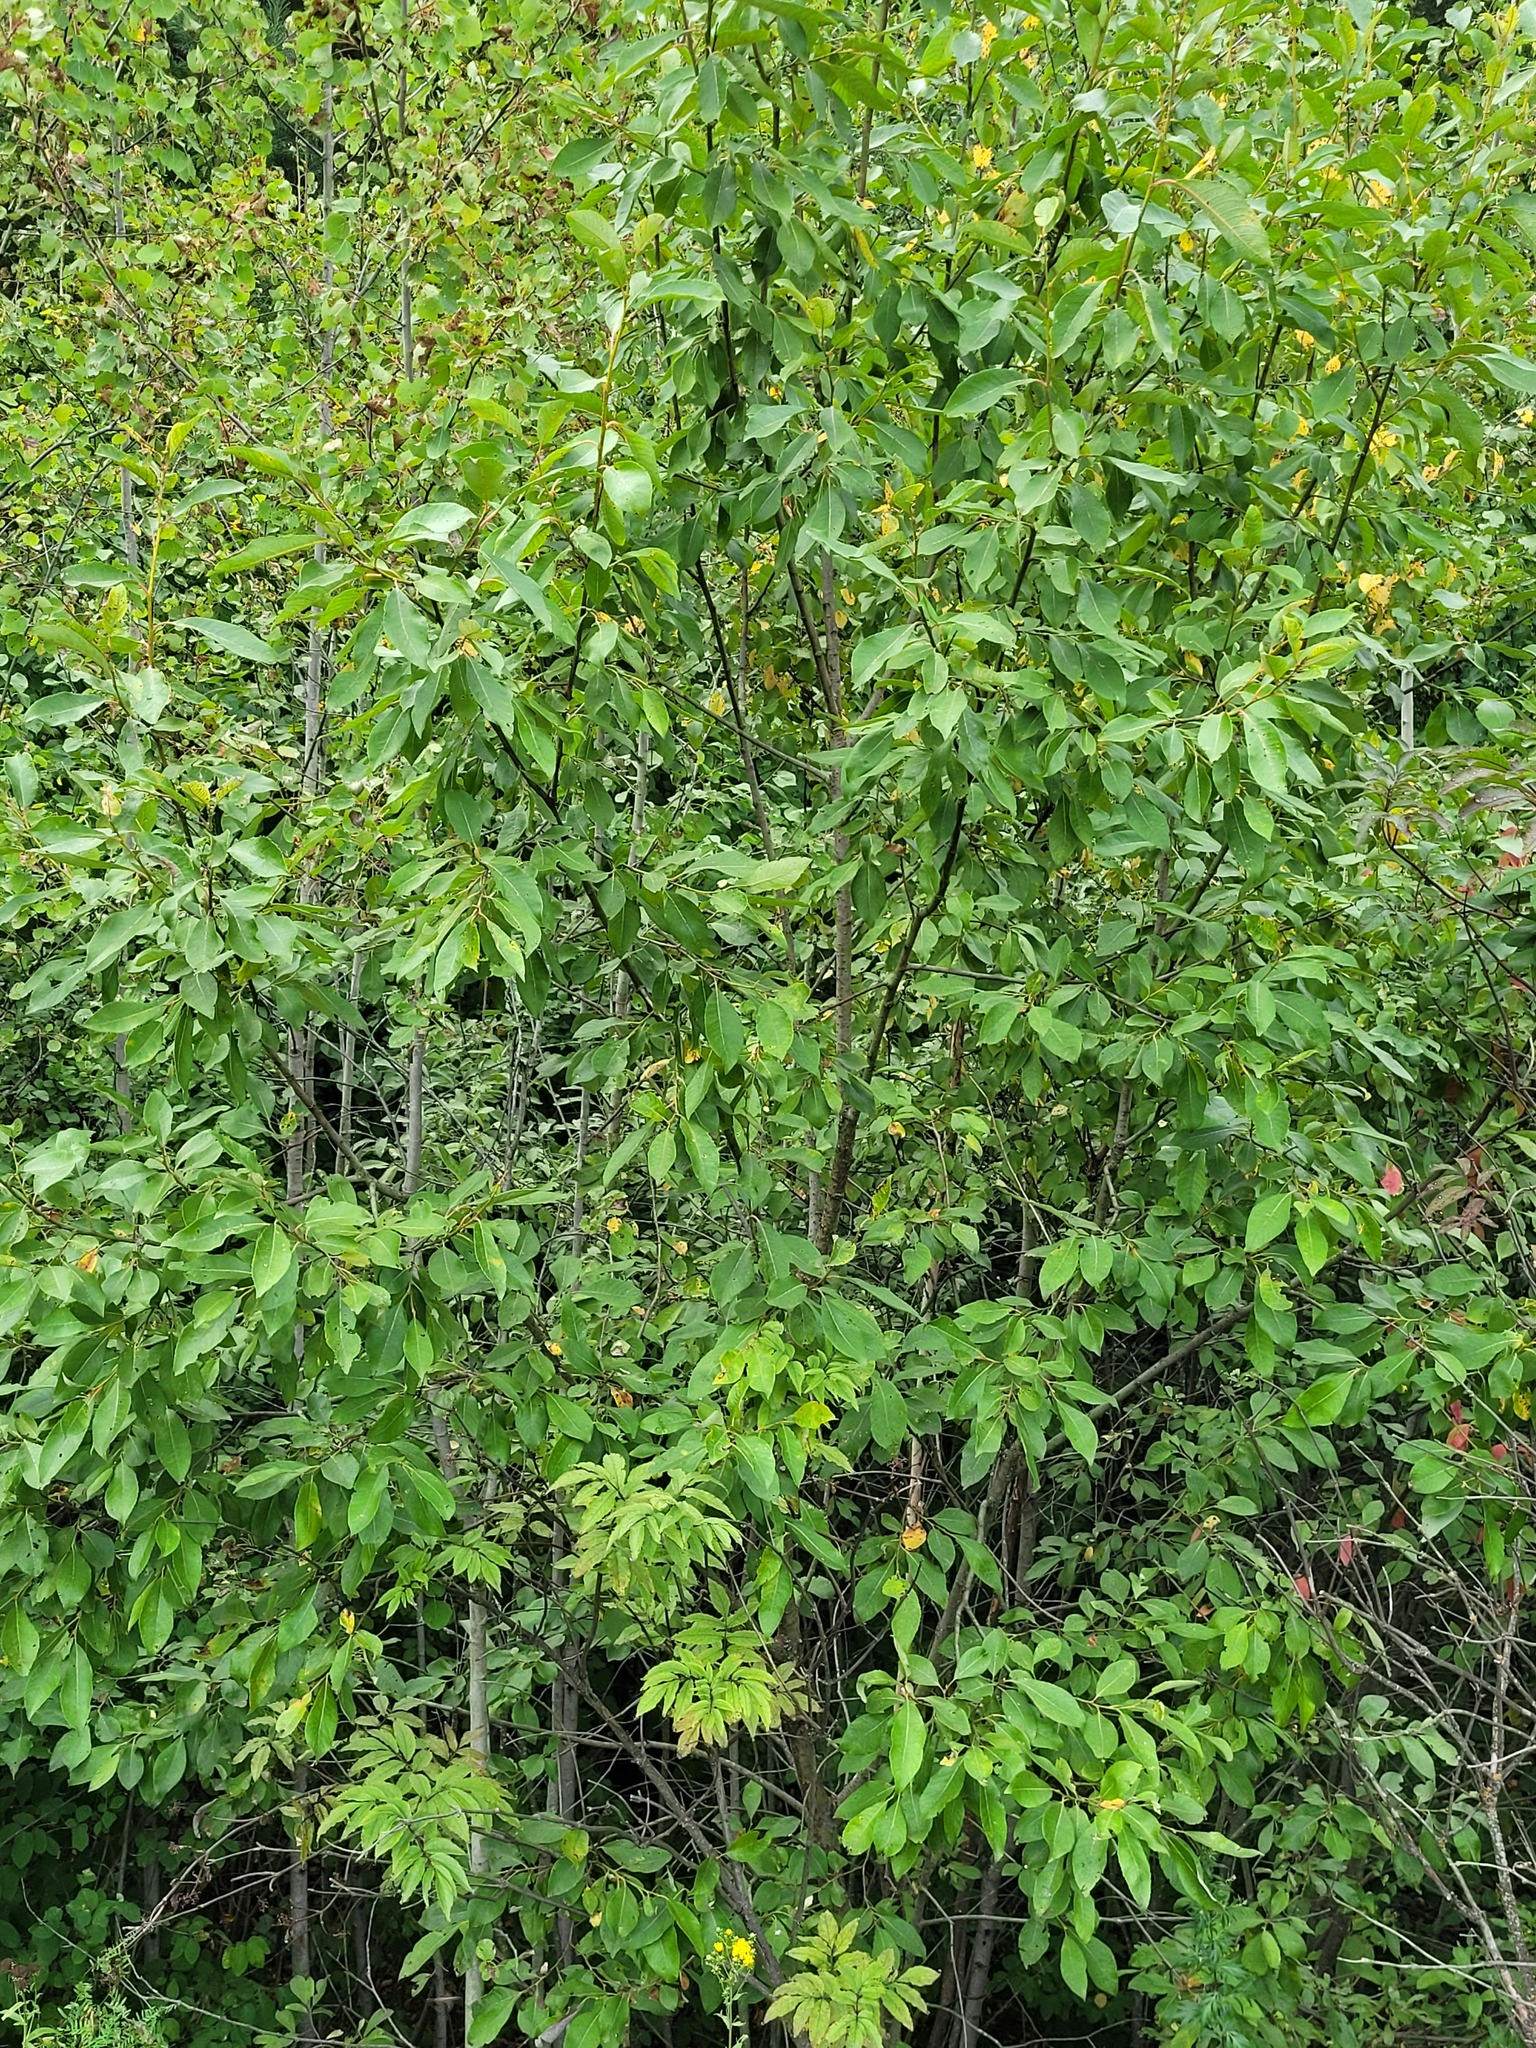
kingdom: Plantae
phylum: Tracheophyta
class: Magnoliopsida
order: Malpighiales
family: Salicaceae
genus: Salix
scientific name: Salix caprea
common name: Goat willow
